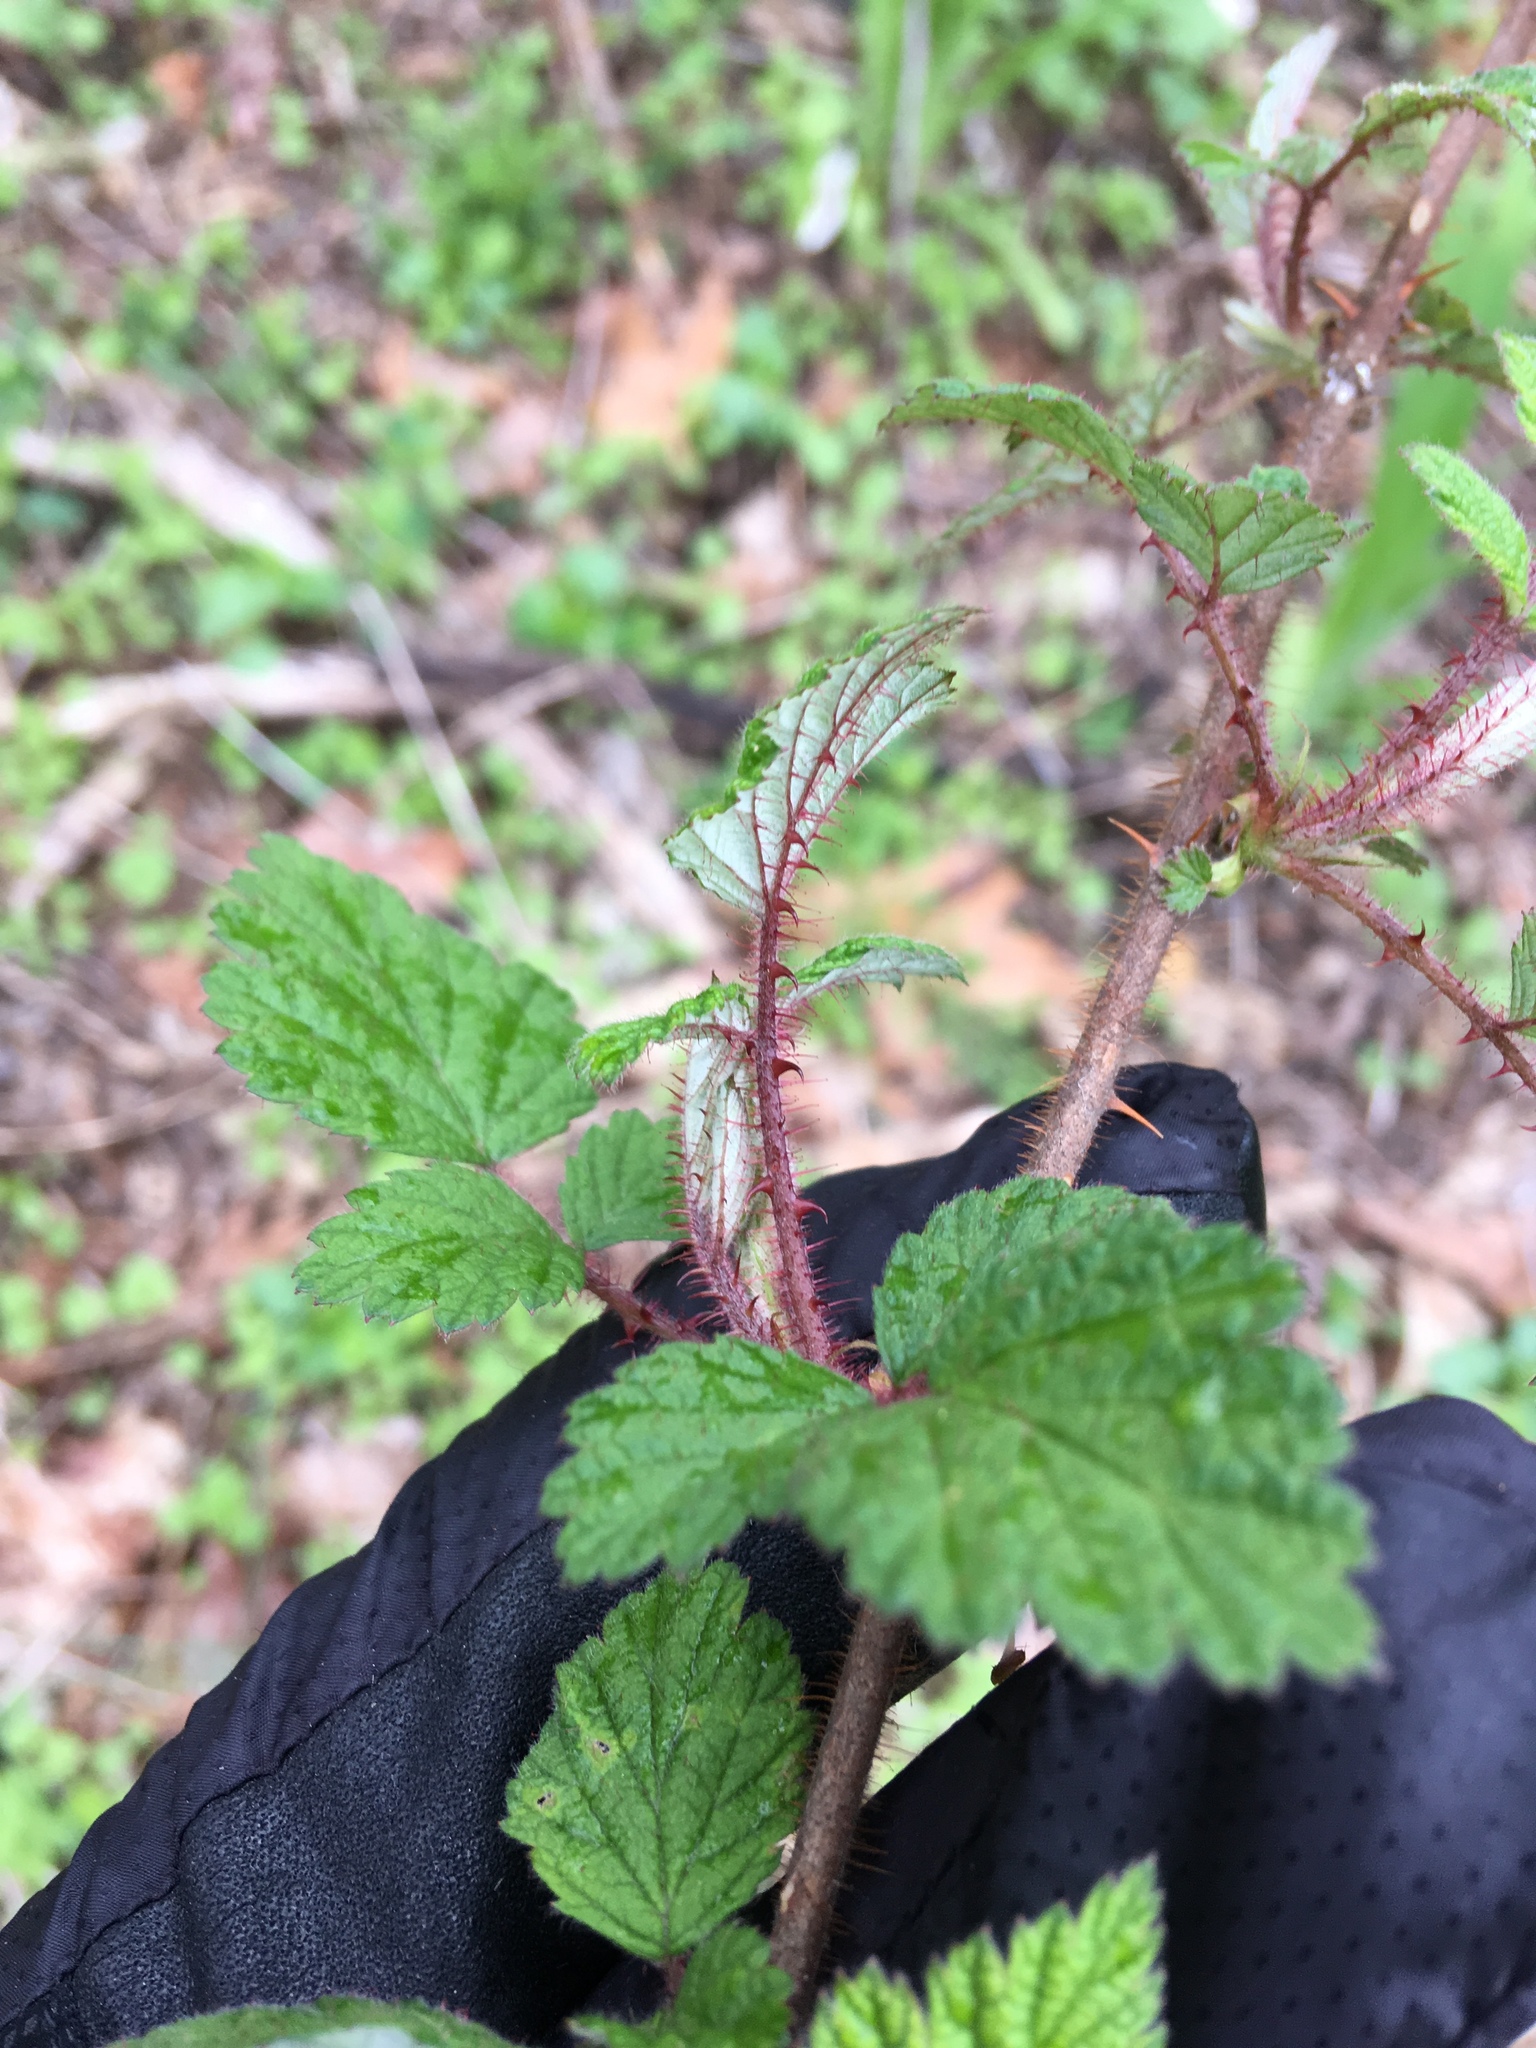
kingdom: Plantae
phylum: Tracheophyta
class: Magnoliopsida
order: Rosales
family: Rosaceae
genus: Rubus
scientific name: Rubus phoenicolasius
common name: Japanese wineberry
